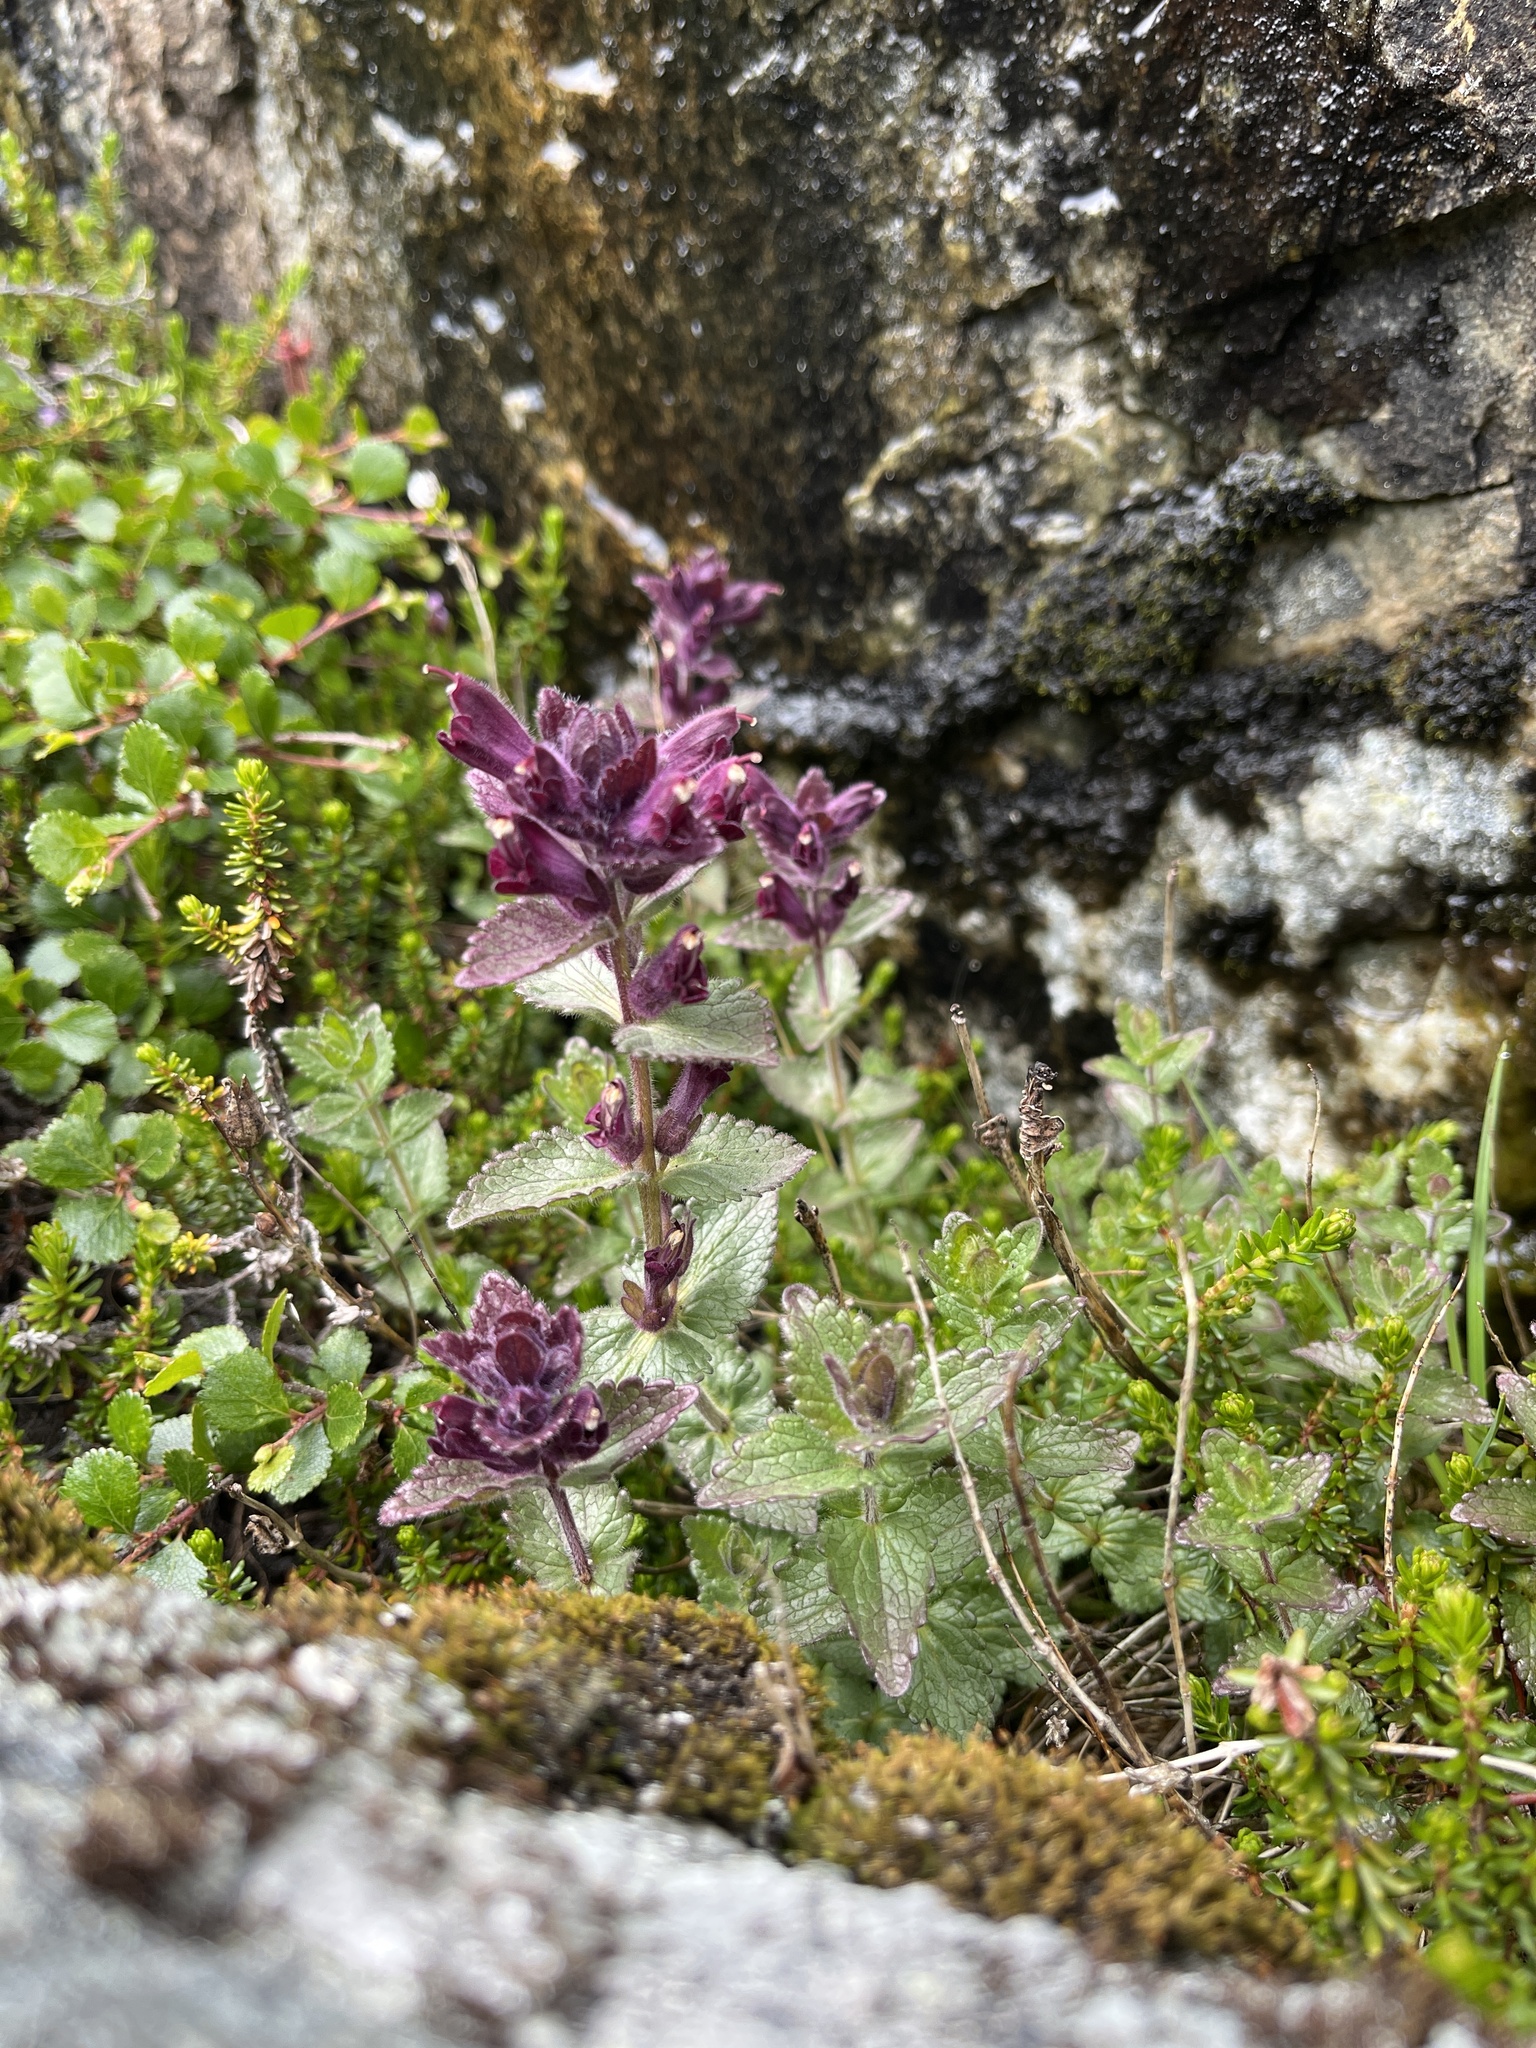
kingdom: Plantae
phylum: Tracheophyta
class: Magnoliopsida
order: Lamiales
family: Orobanchaceae
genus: Bartsia
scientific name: Bartsia alpina
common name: Alpine bartsia
